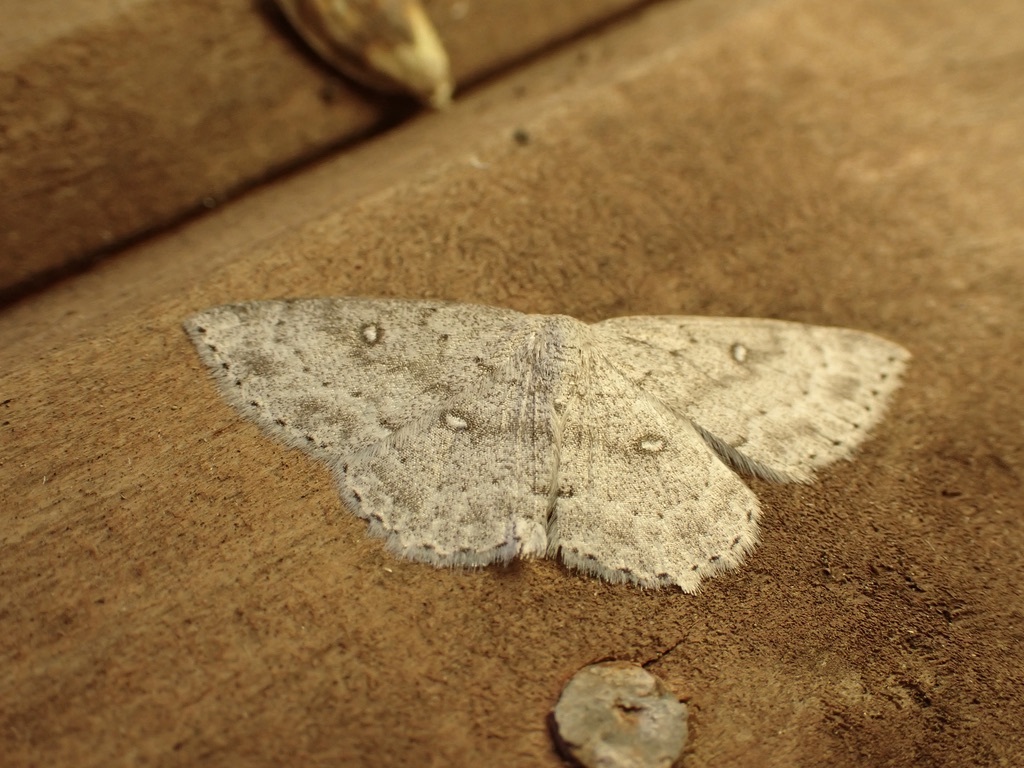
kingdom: Animalia
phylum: Arthropoda
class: Insecta
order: Lepidoptera
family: Geometridae
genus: Cyclophora
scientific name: Cyclophora pendulinaria
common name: Sweet fern geometer
